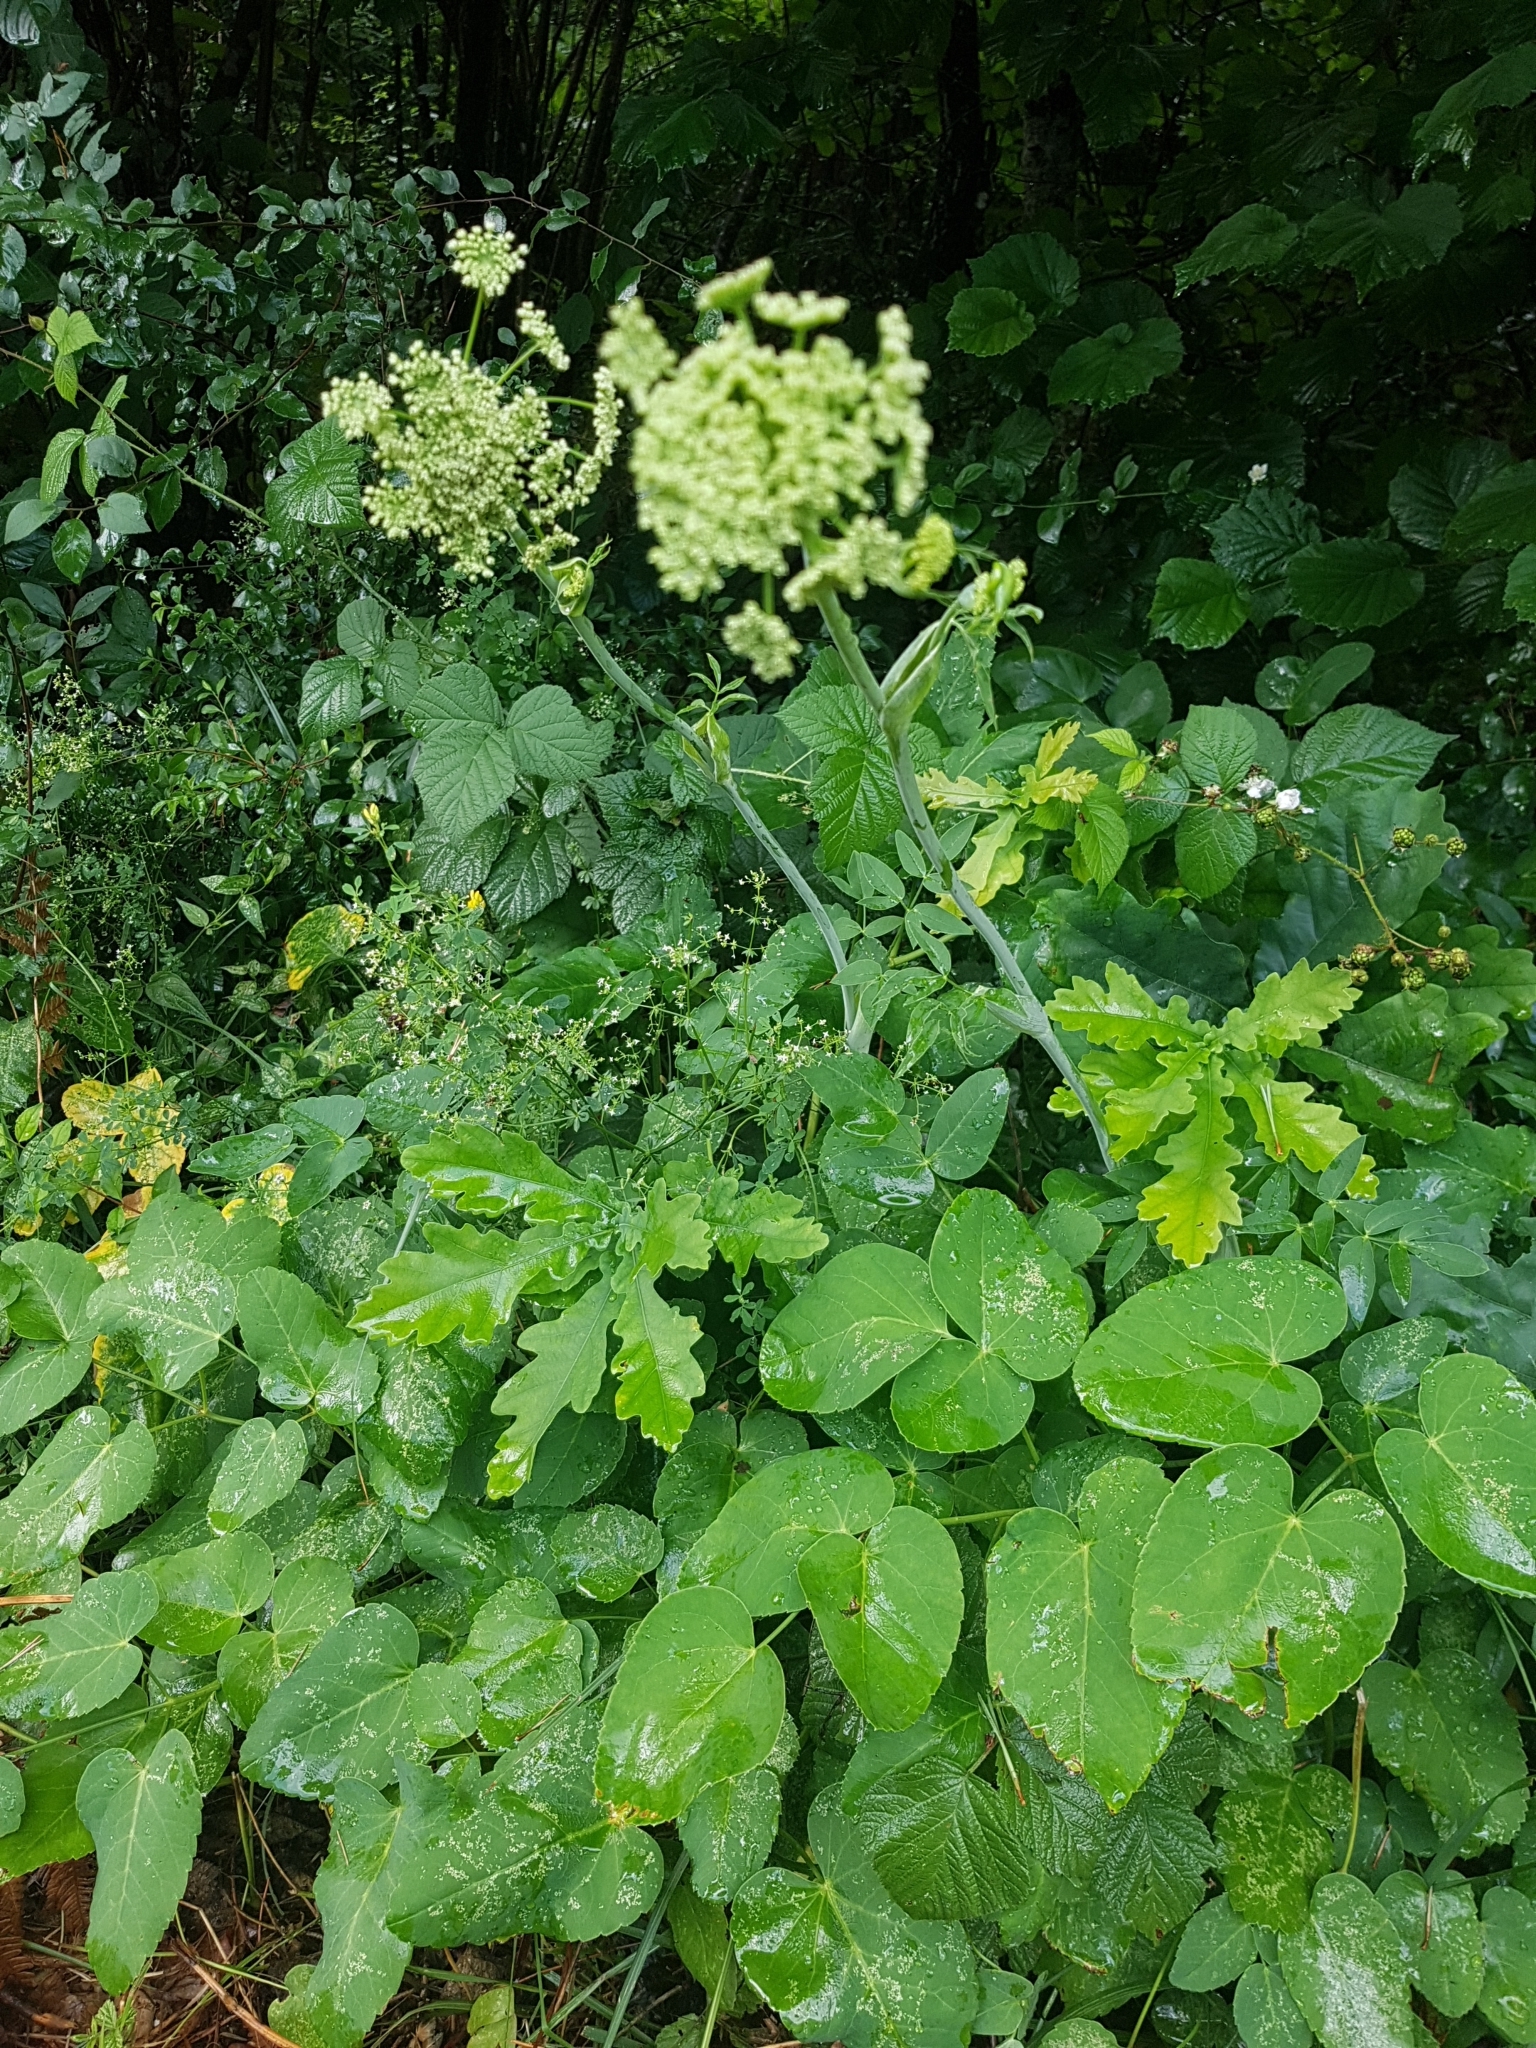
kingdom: Plantae
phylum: Tracheophyta
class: Magnoliopsida
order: Apiales
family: Apiaceae
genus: Laserpitium
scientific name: Laserpitium latifolium
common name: Broadleaf sermountain
